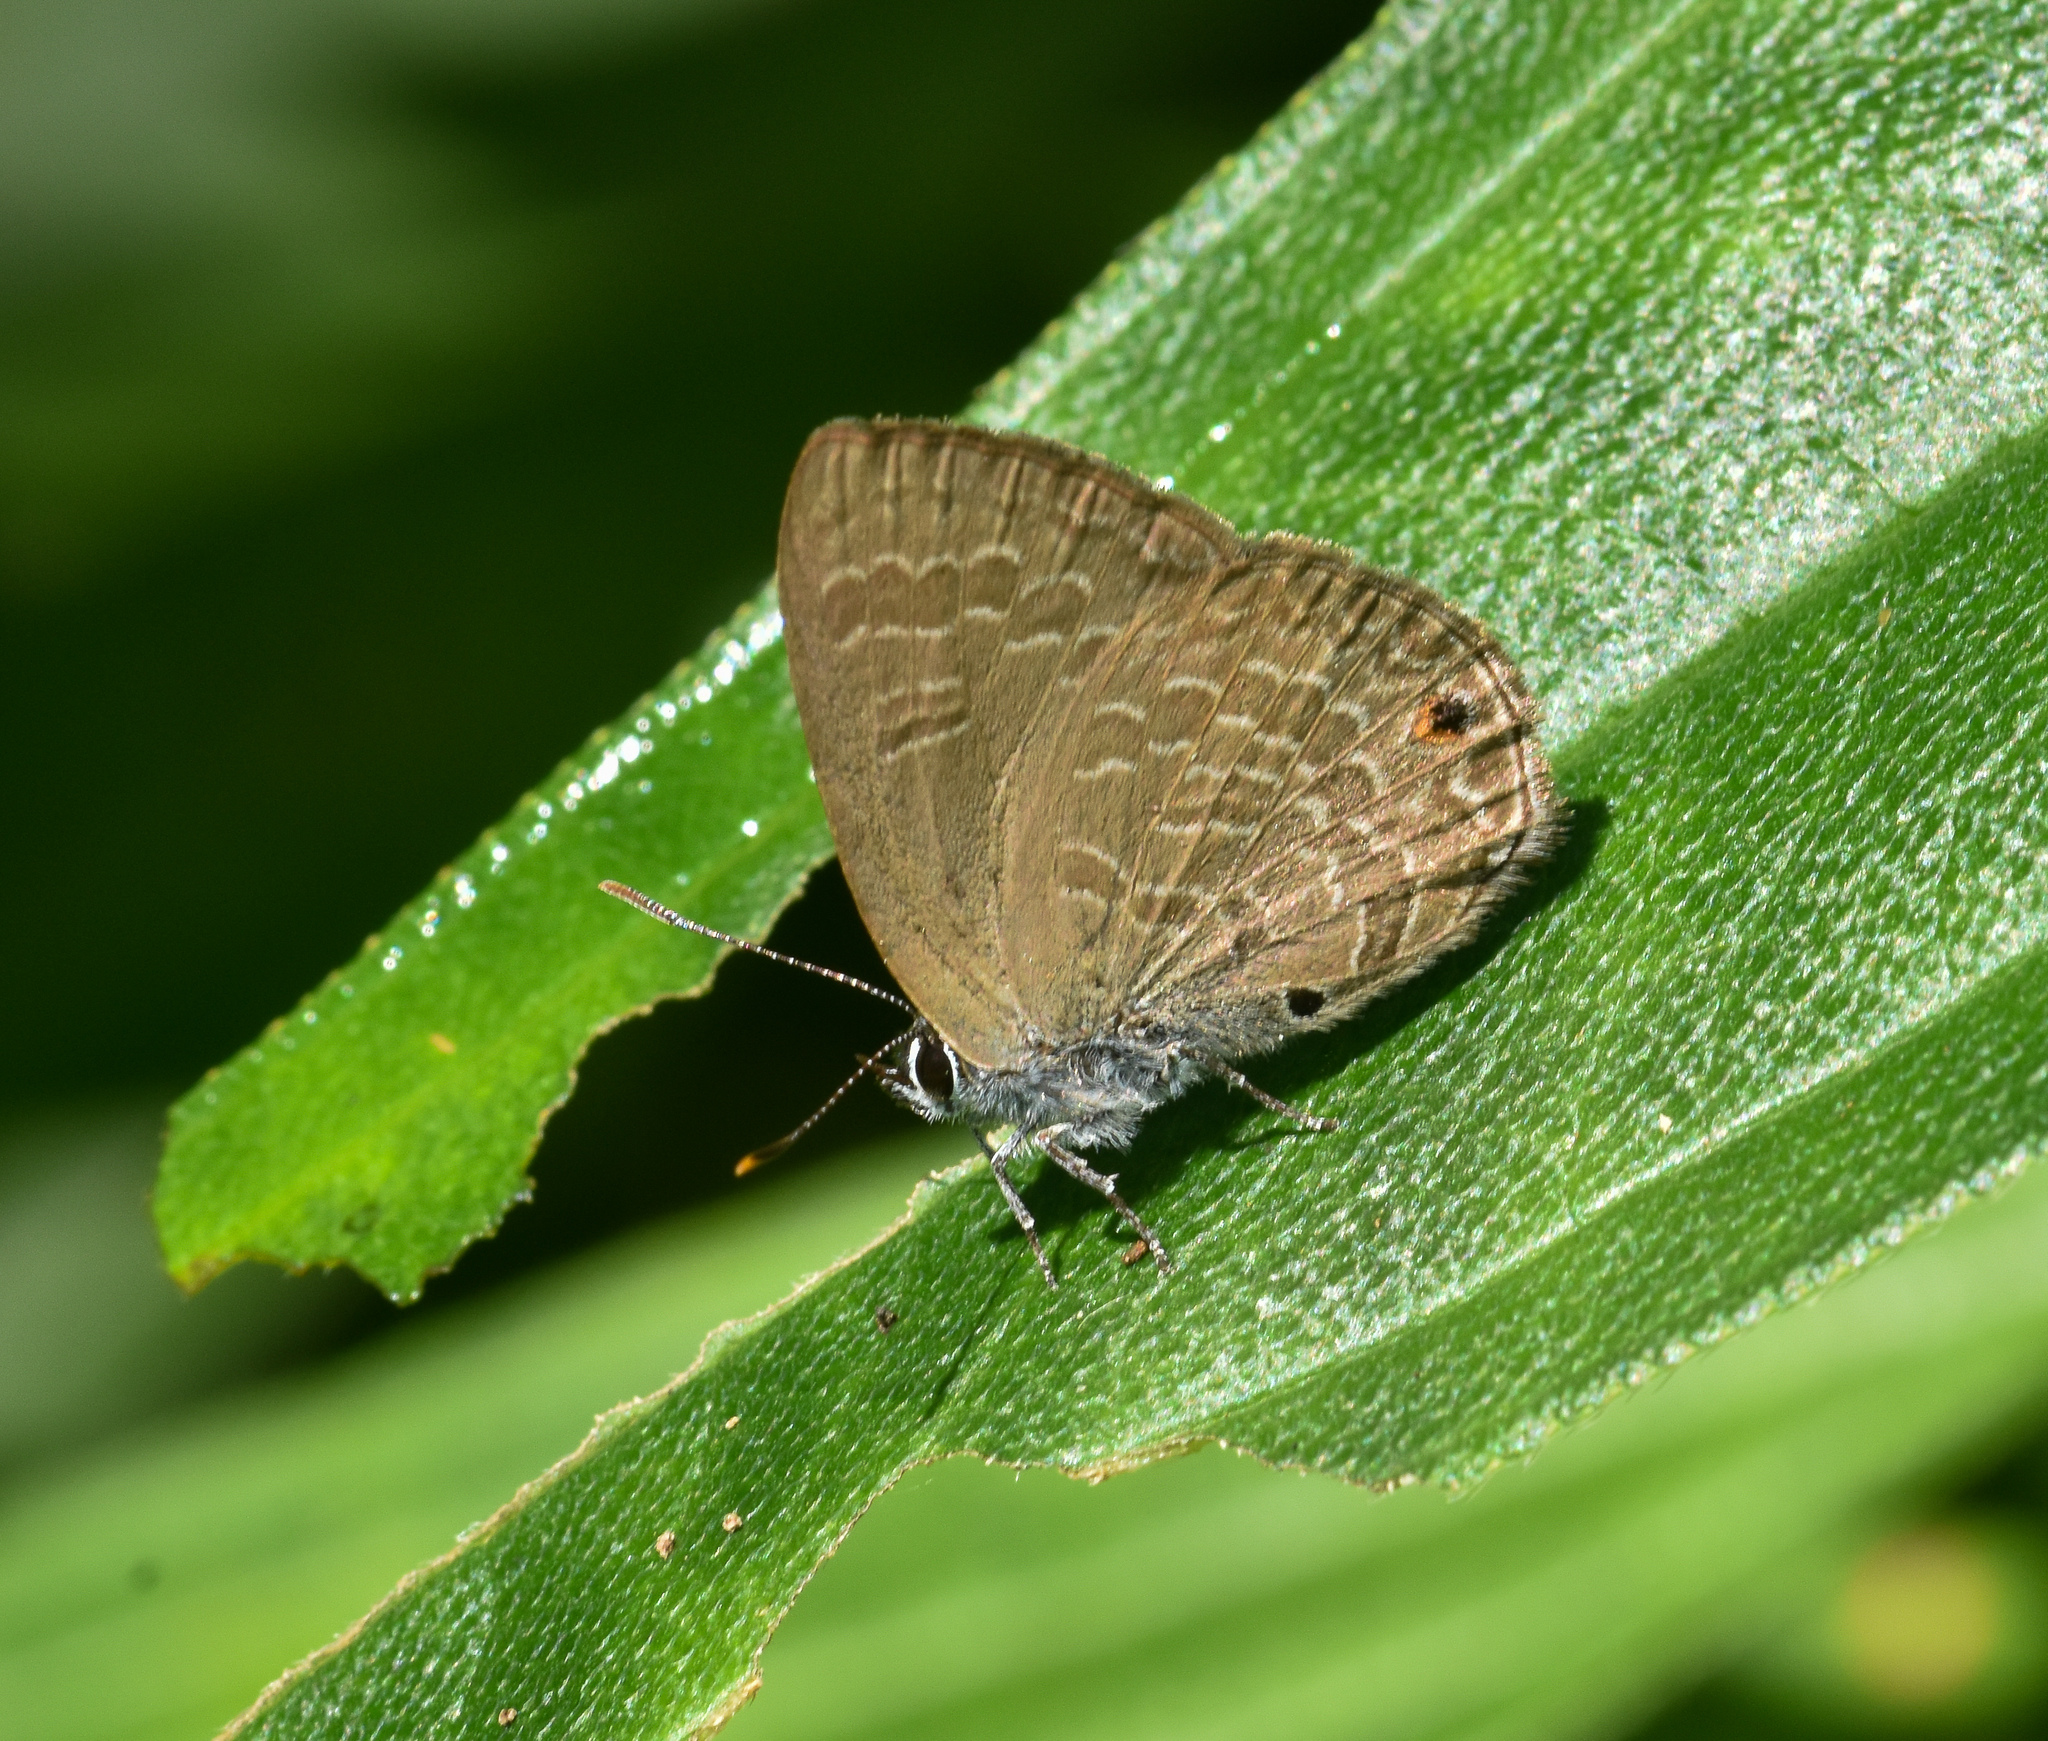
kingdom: Animalia
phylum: Arthropoda
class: Insecta
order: Lepidoptera
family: Lycaenidae
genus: Anthene
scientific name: Anthene emolus
